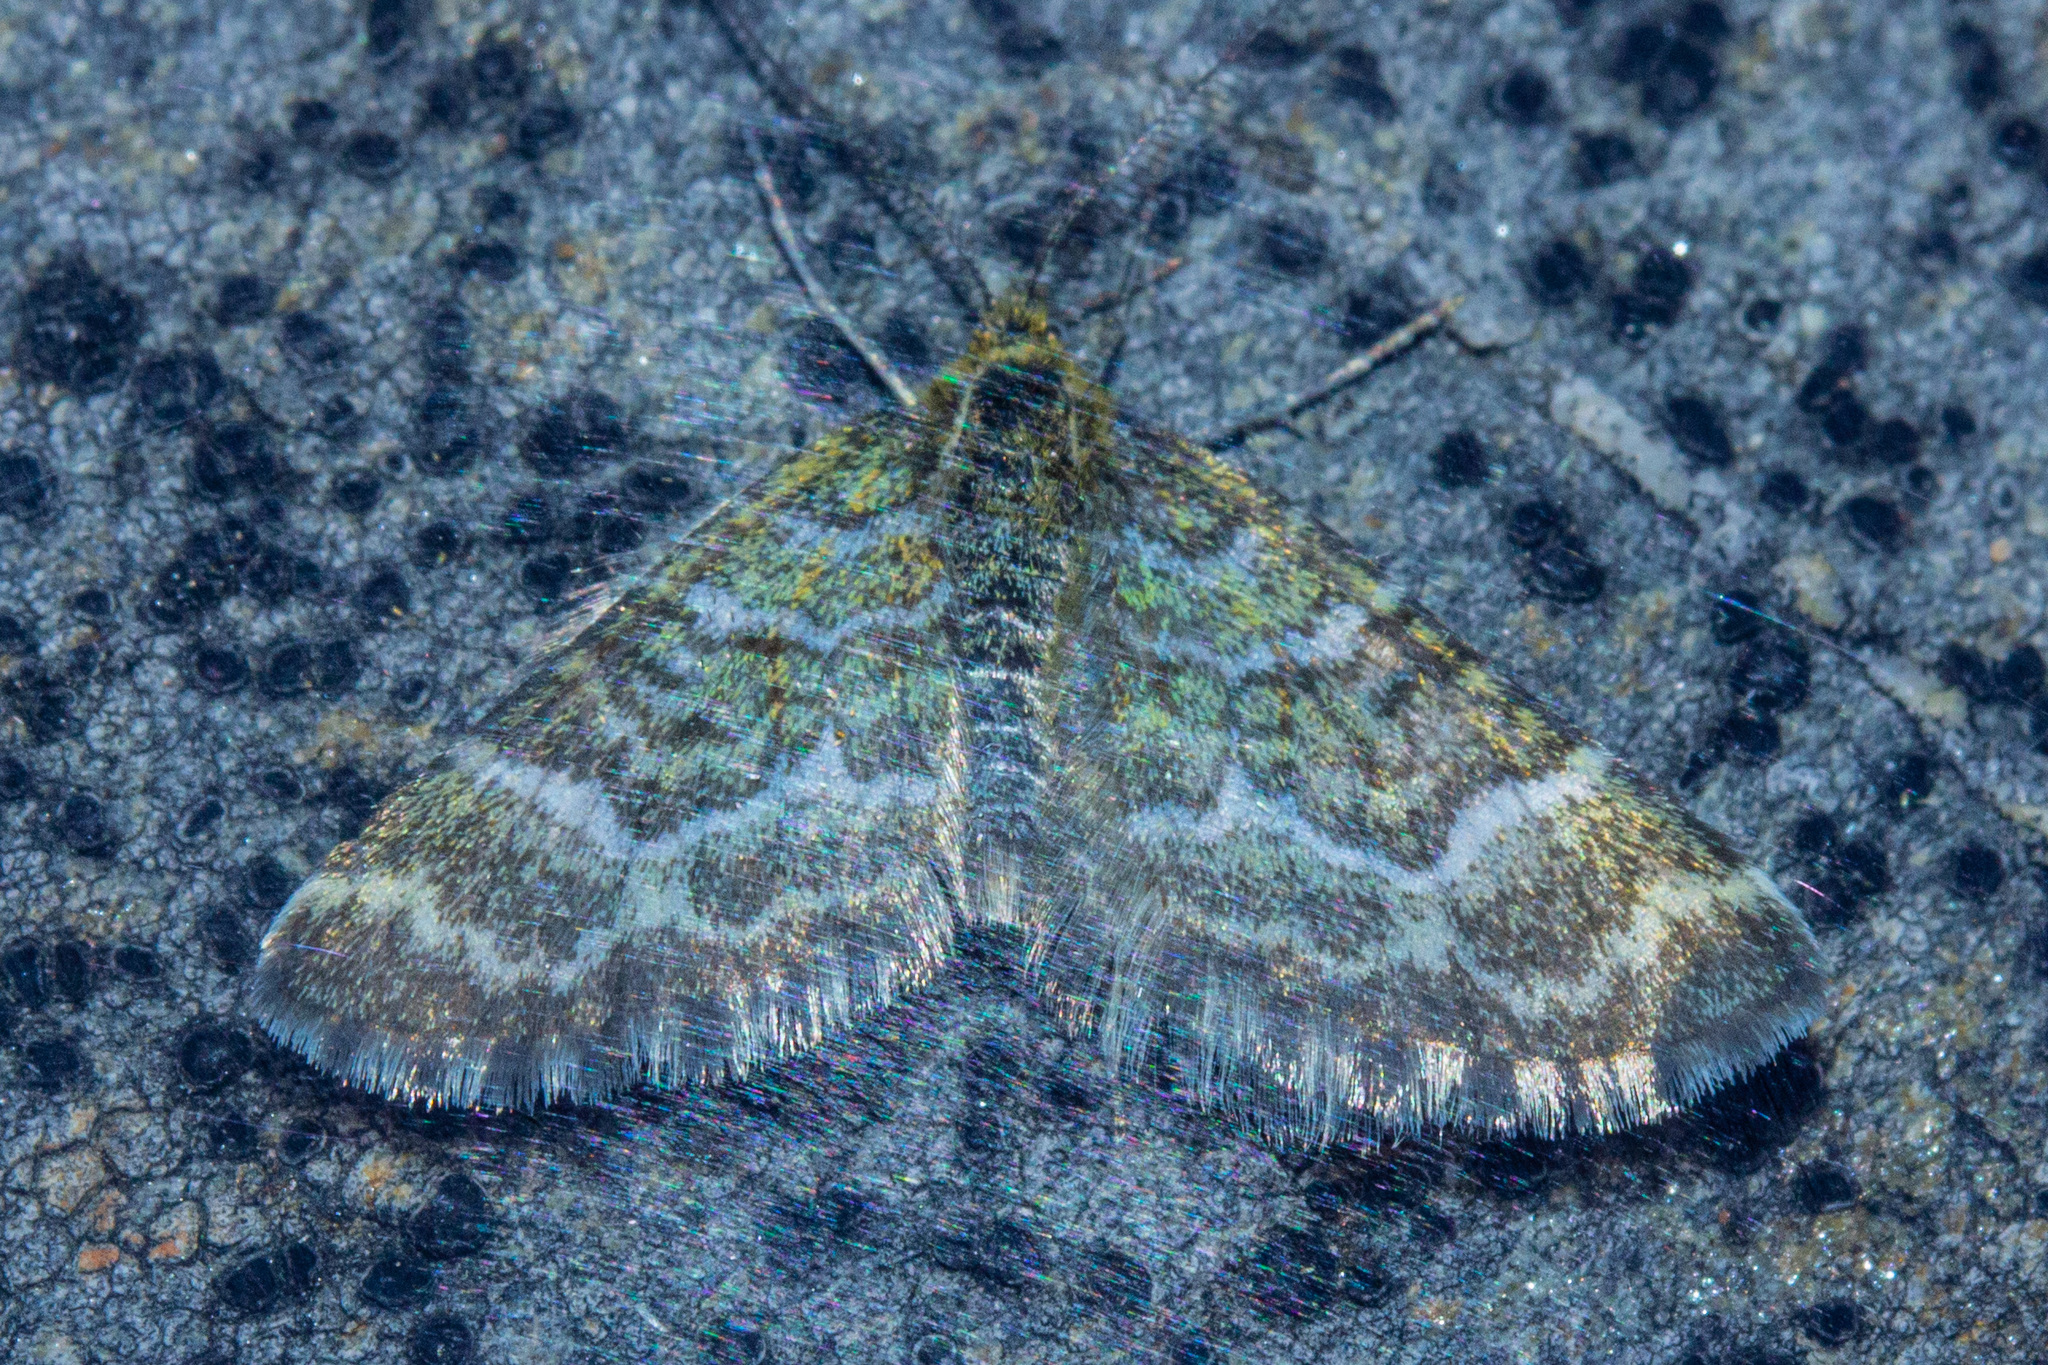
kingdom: Animalia
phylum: Arthropoda
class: Insecta
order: Lepidoptera
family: Geometridae
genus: Notoreas
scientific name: Notoreas paradelpha
